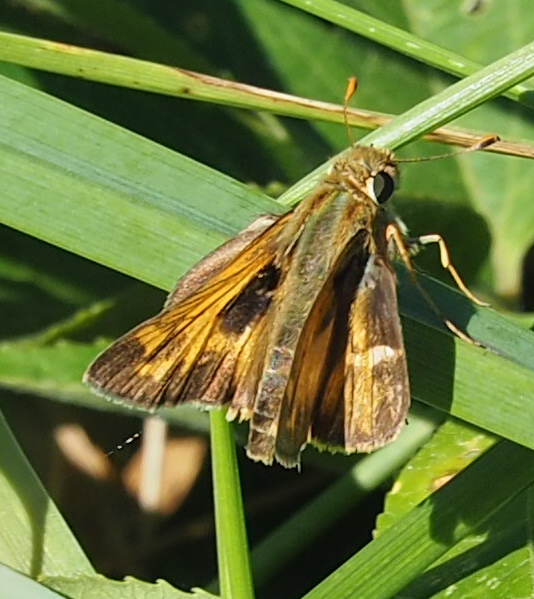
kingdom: Animalia
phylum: Arthropoda
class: Insecta
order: Lepidoptera
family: Hesperiidae
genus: Atalopedes
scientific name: Atalopedes
